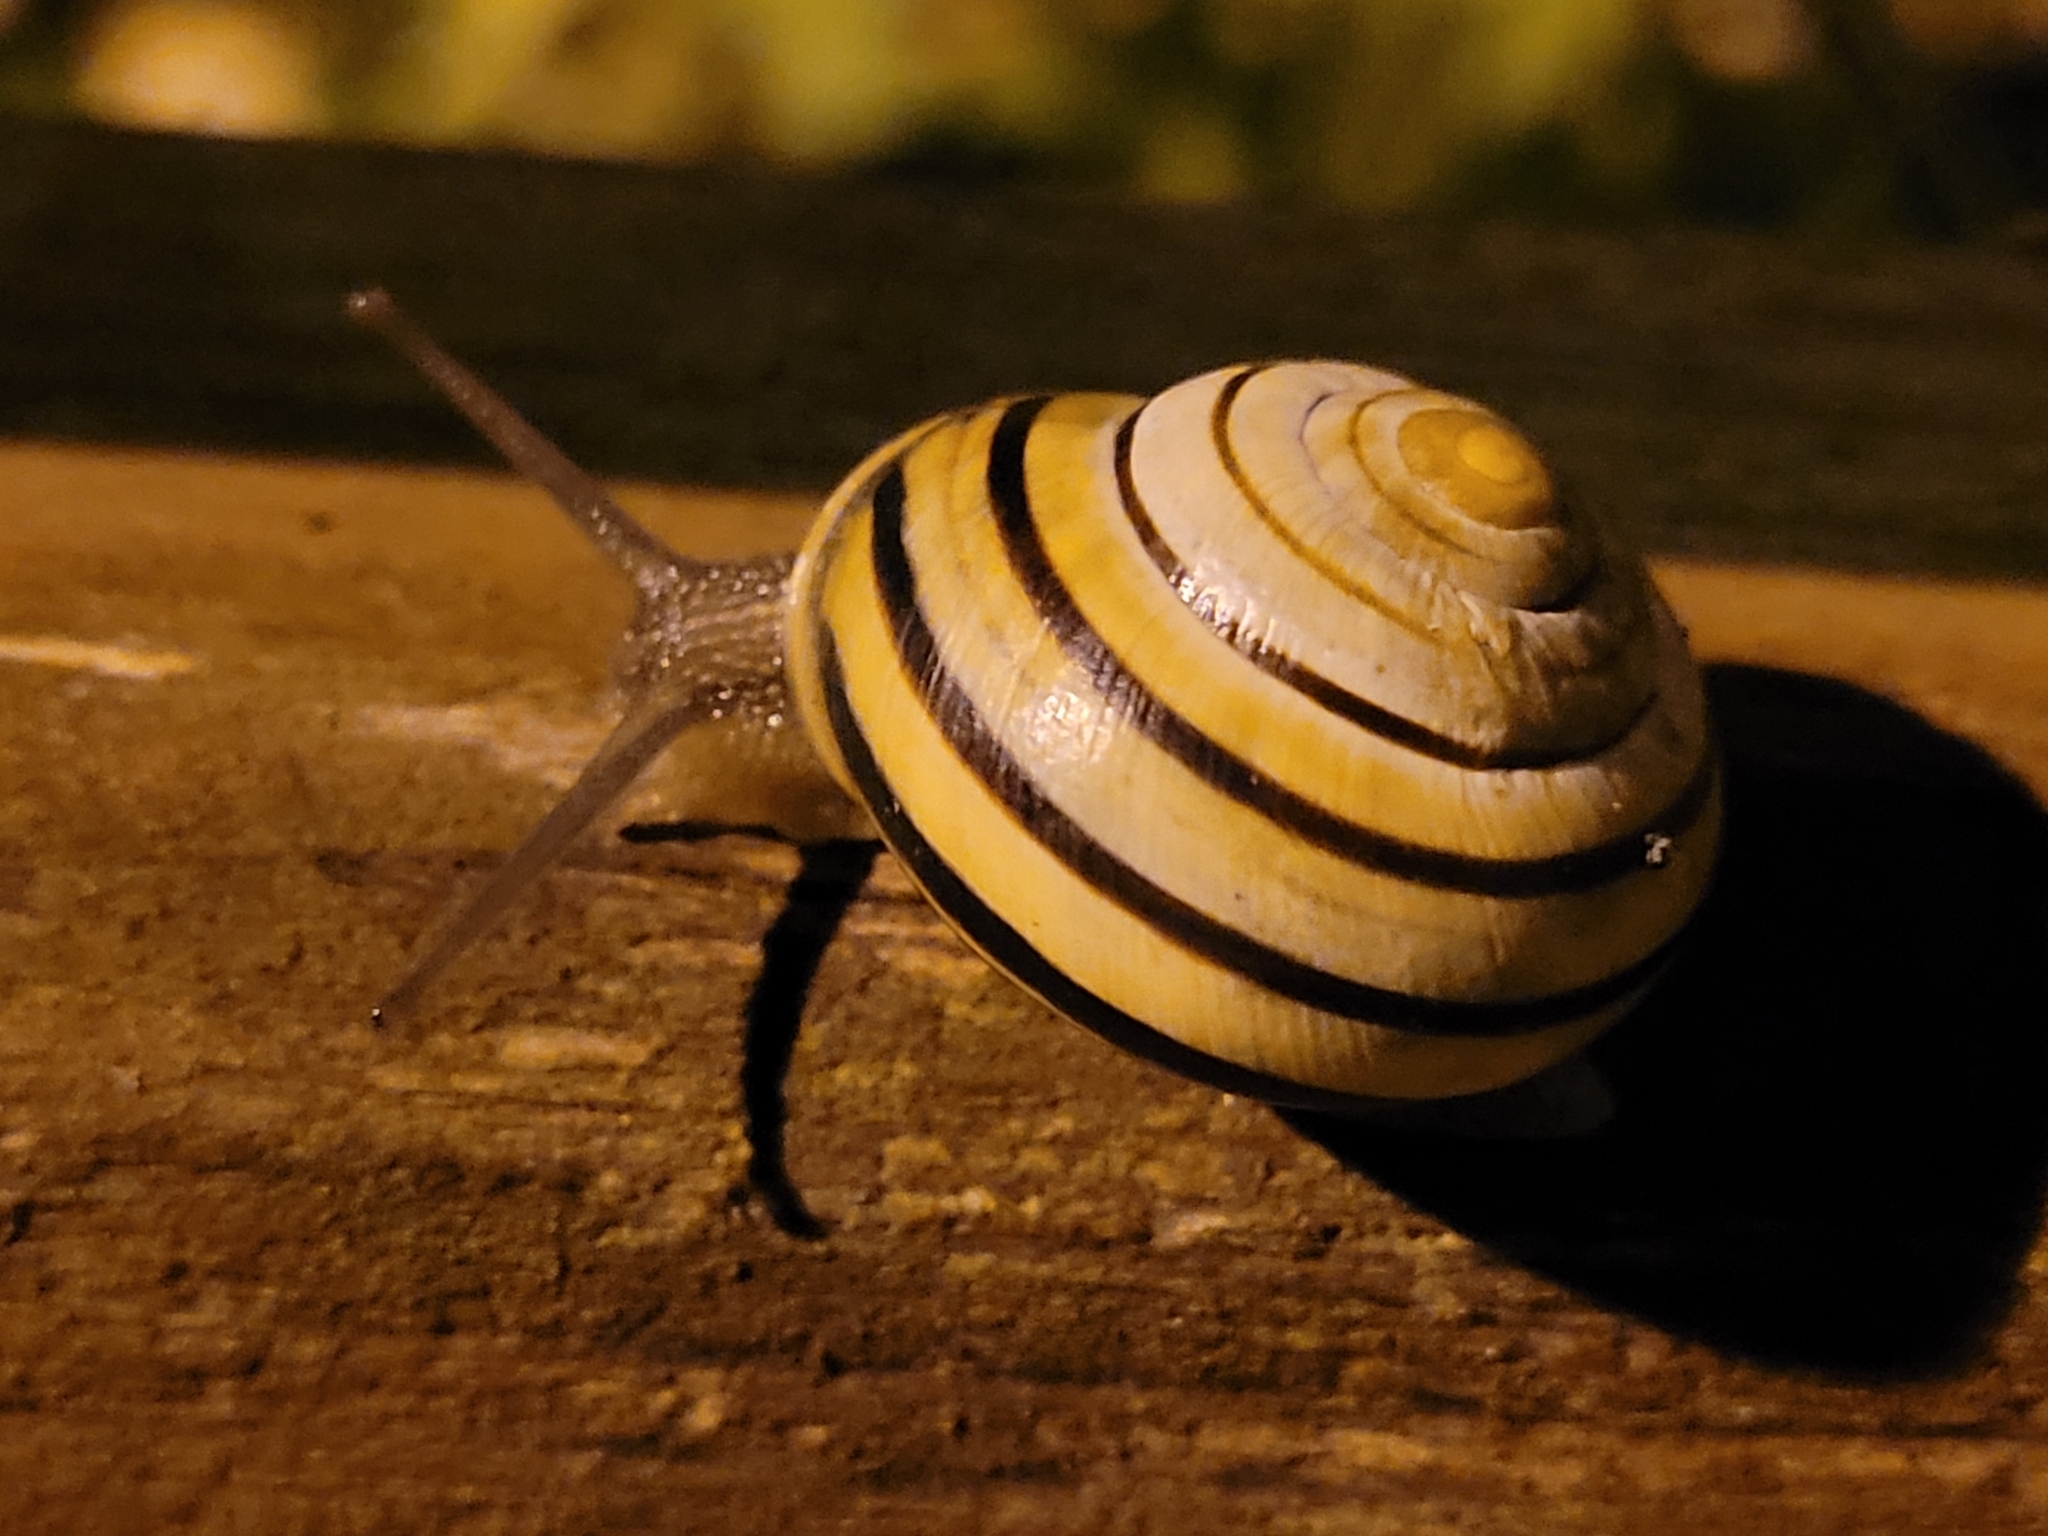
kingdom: Animalia
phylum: Mollusca
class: Gastropoda
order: Stylommatophora
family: Helicidae
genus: Cepaea
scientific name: Cepaea nemoralis
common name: Grovesnail
